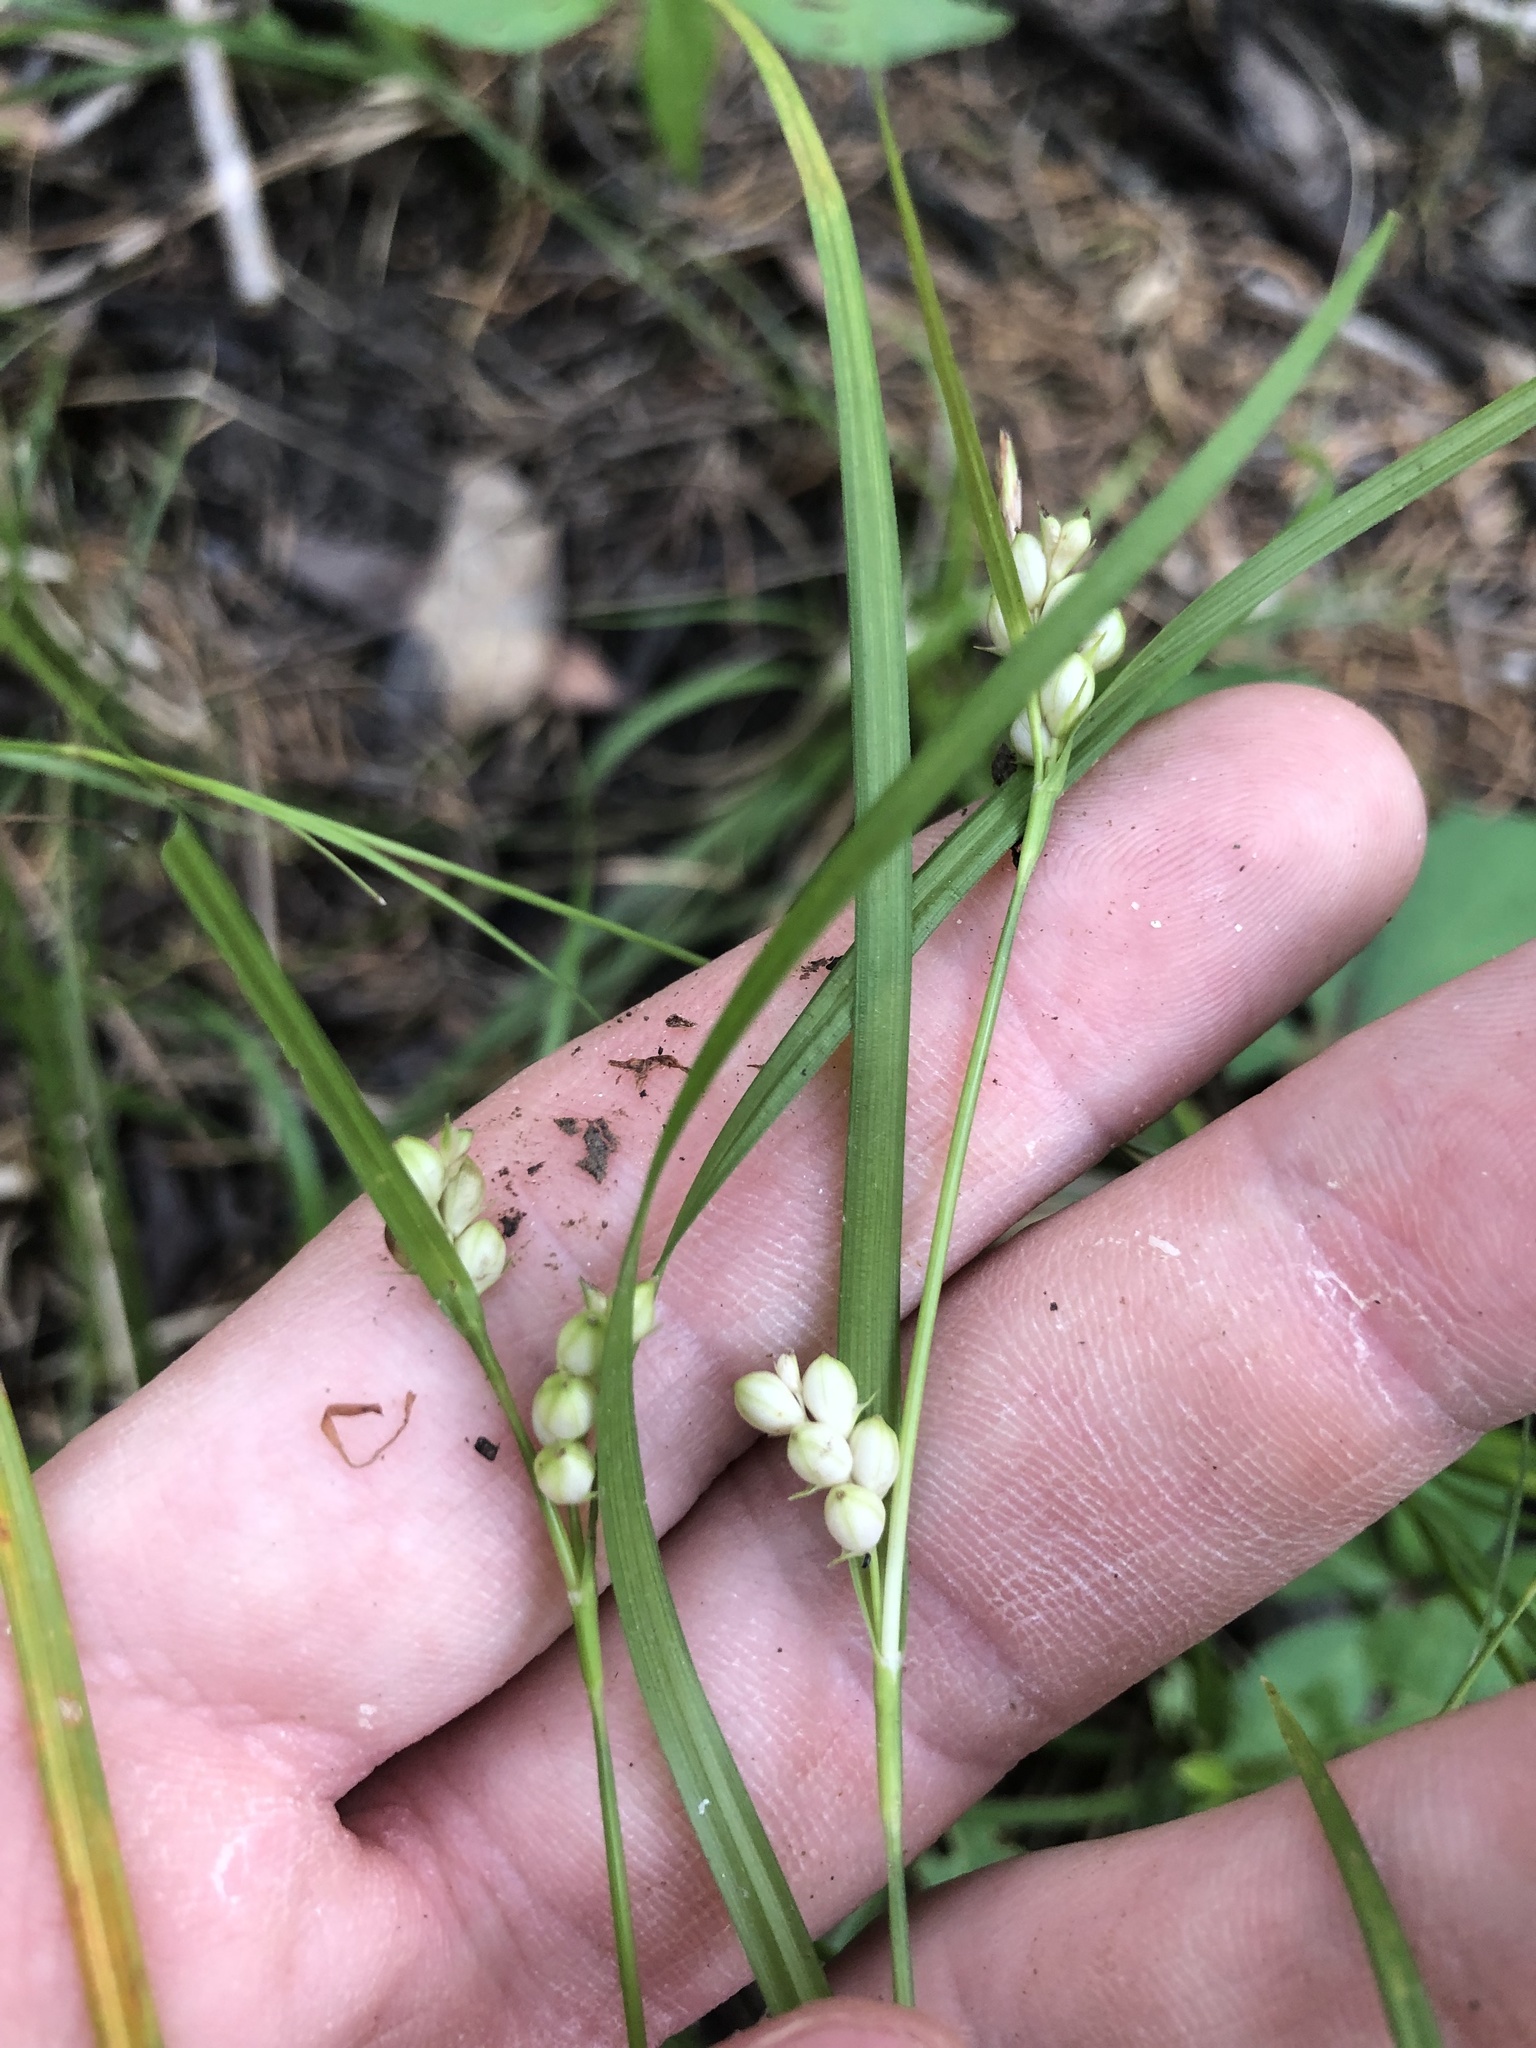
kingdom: Plantae
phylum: Tracheophyta
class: Liliopsida
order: Poales
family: Cyperaceae
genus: Carex
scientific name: Carex bulbostylis
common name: Eastern narrowleaf sedge
